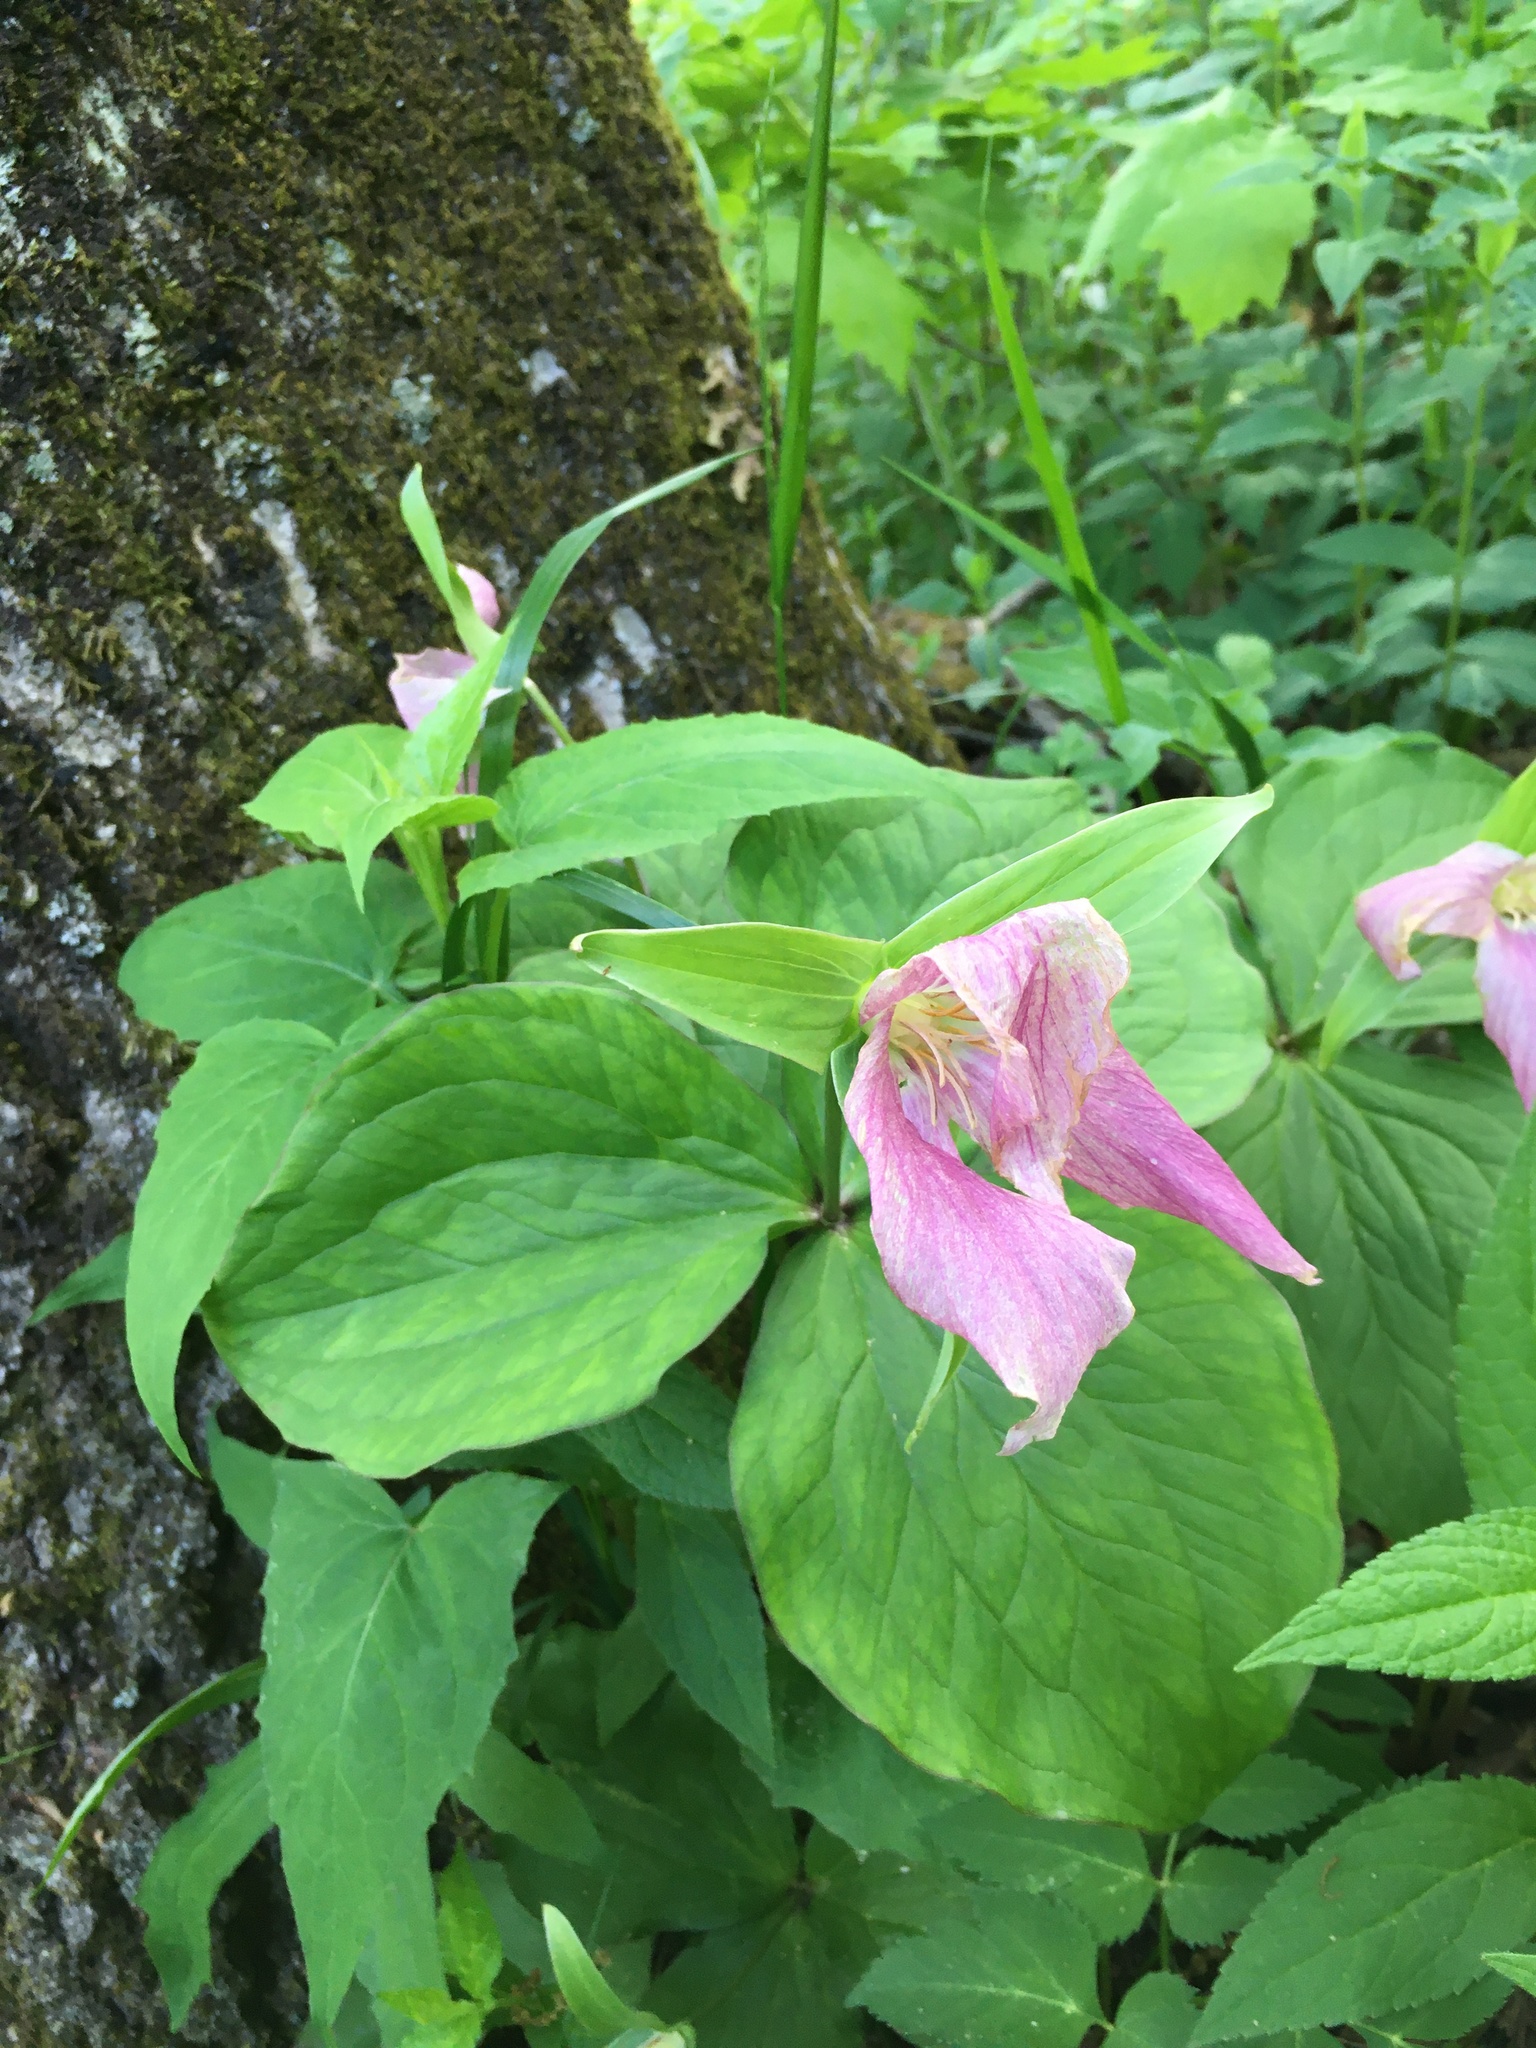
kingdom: Plantae
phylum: Tracheophyta
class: Liliopsida
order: Liliales
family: Melanthiaceae
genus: Trillium
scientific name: Trillium grandiflorum
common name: Great white trillium
